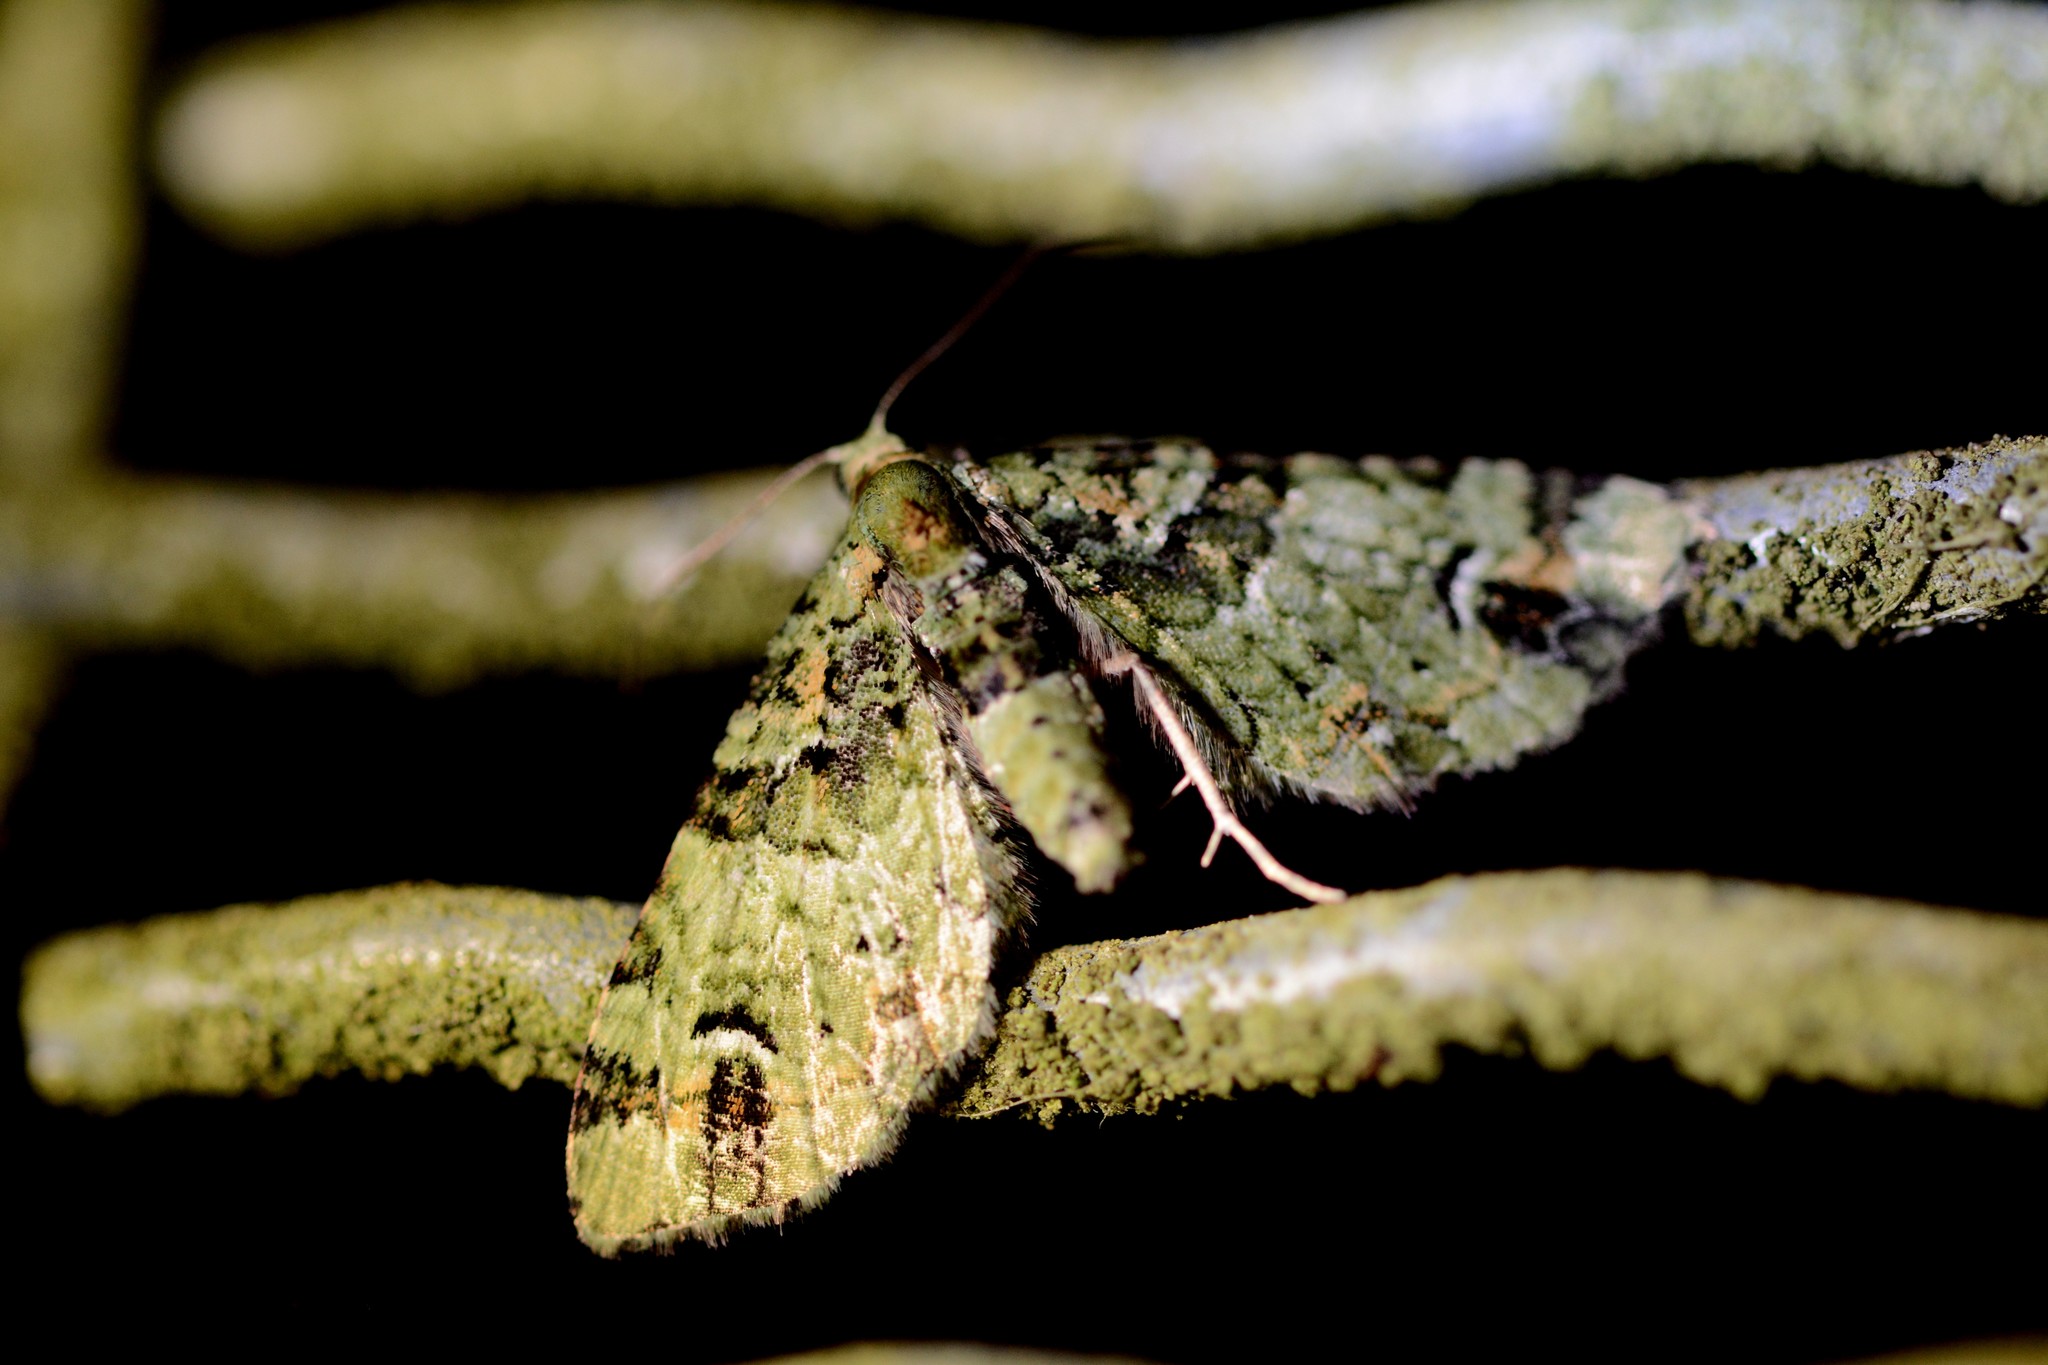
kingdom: Animalia
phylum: Arthropoda
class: Insecta
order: Lepidoptera
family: Geometridae
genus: Pasiphila
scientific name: Pasiphila bilineolata
